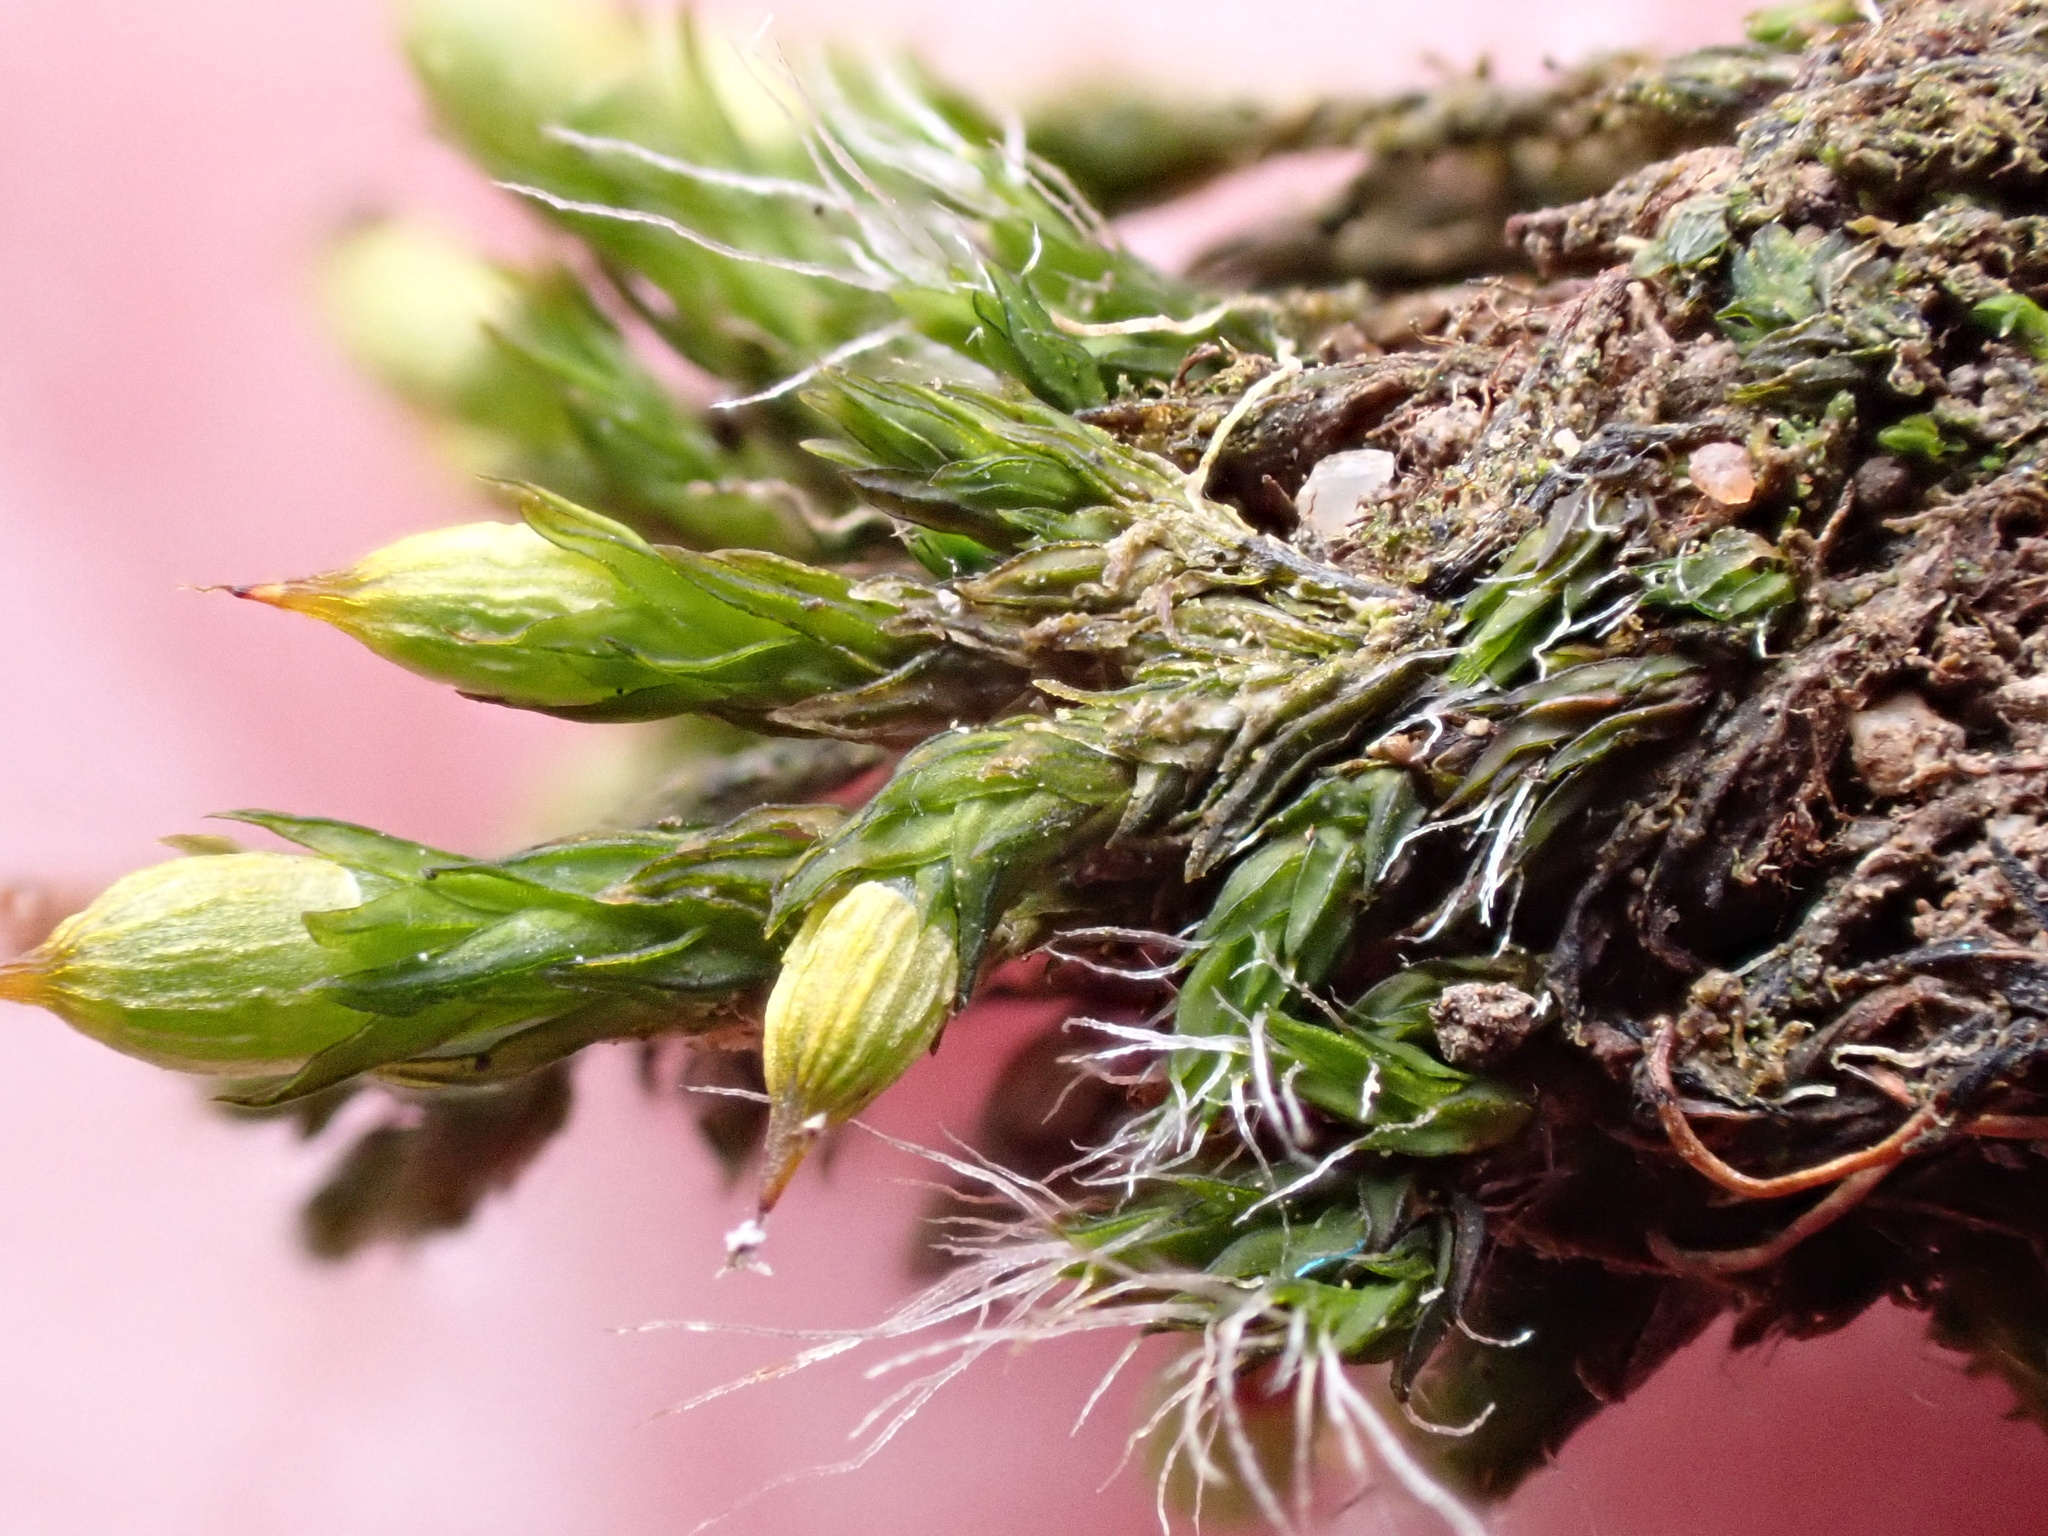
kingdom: Plantae
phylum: Bryophyta
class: Bryopsida
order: Orthotrichales
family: Orthotrichaceae
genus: Orthotrichum
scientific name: Orthotrichum cupulatum
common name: Hooded bristle-moss
